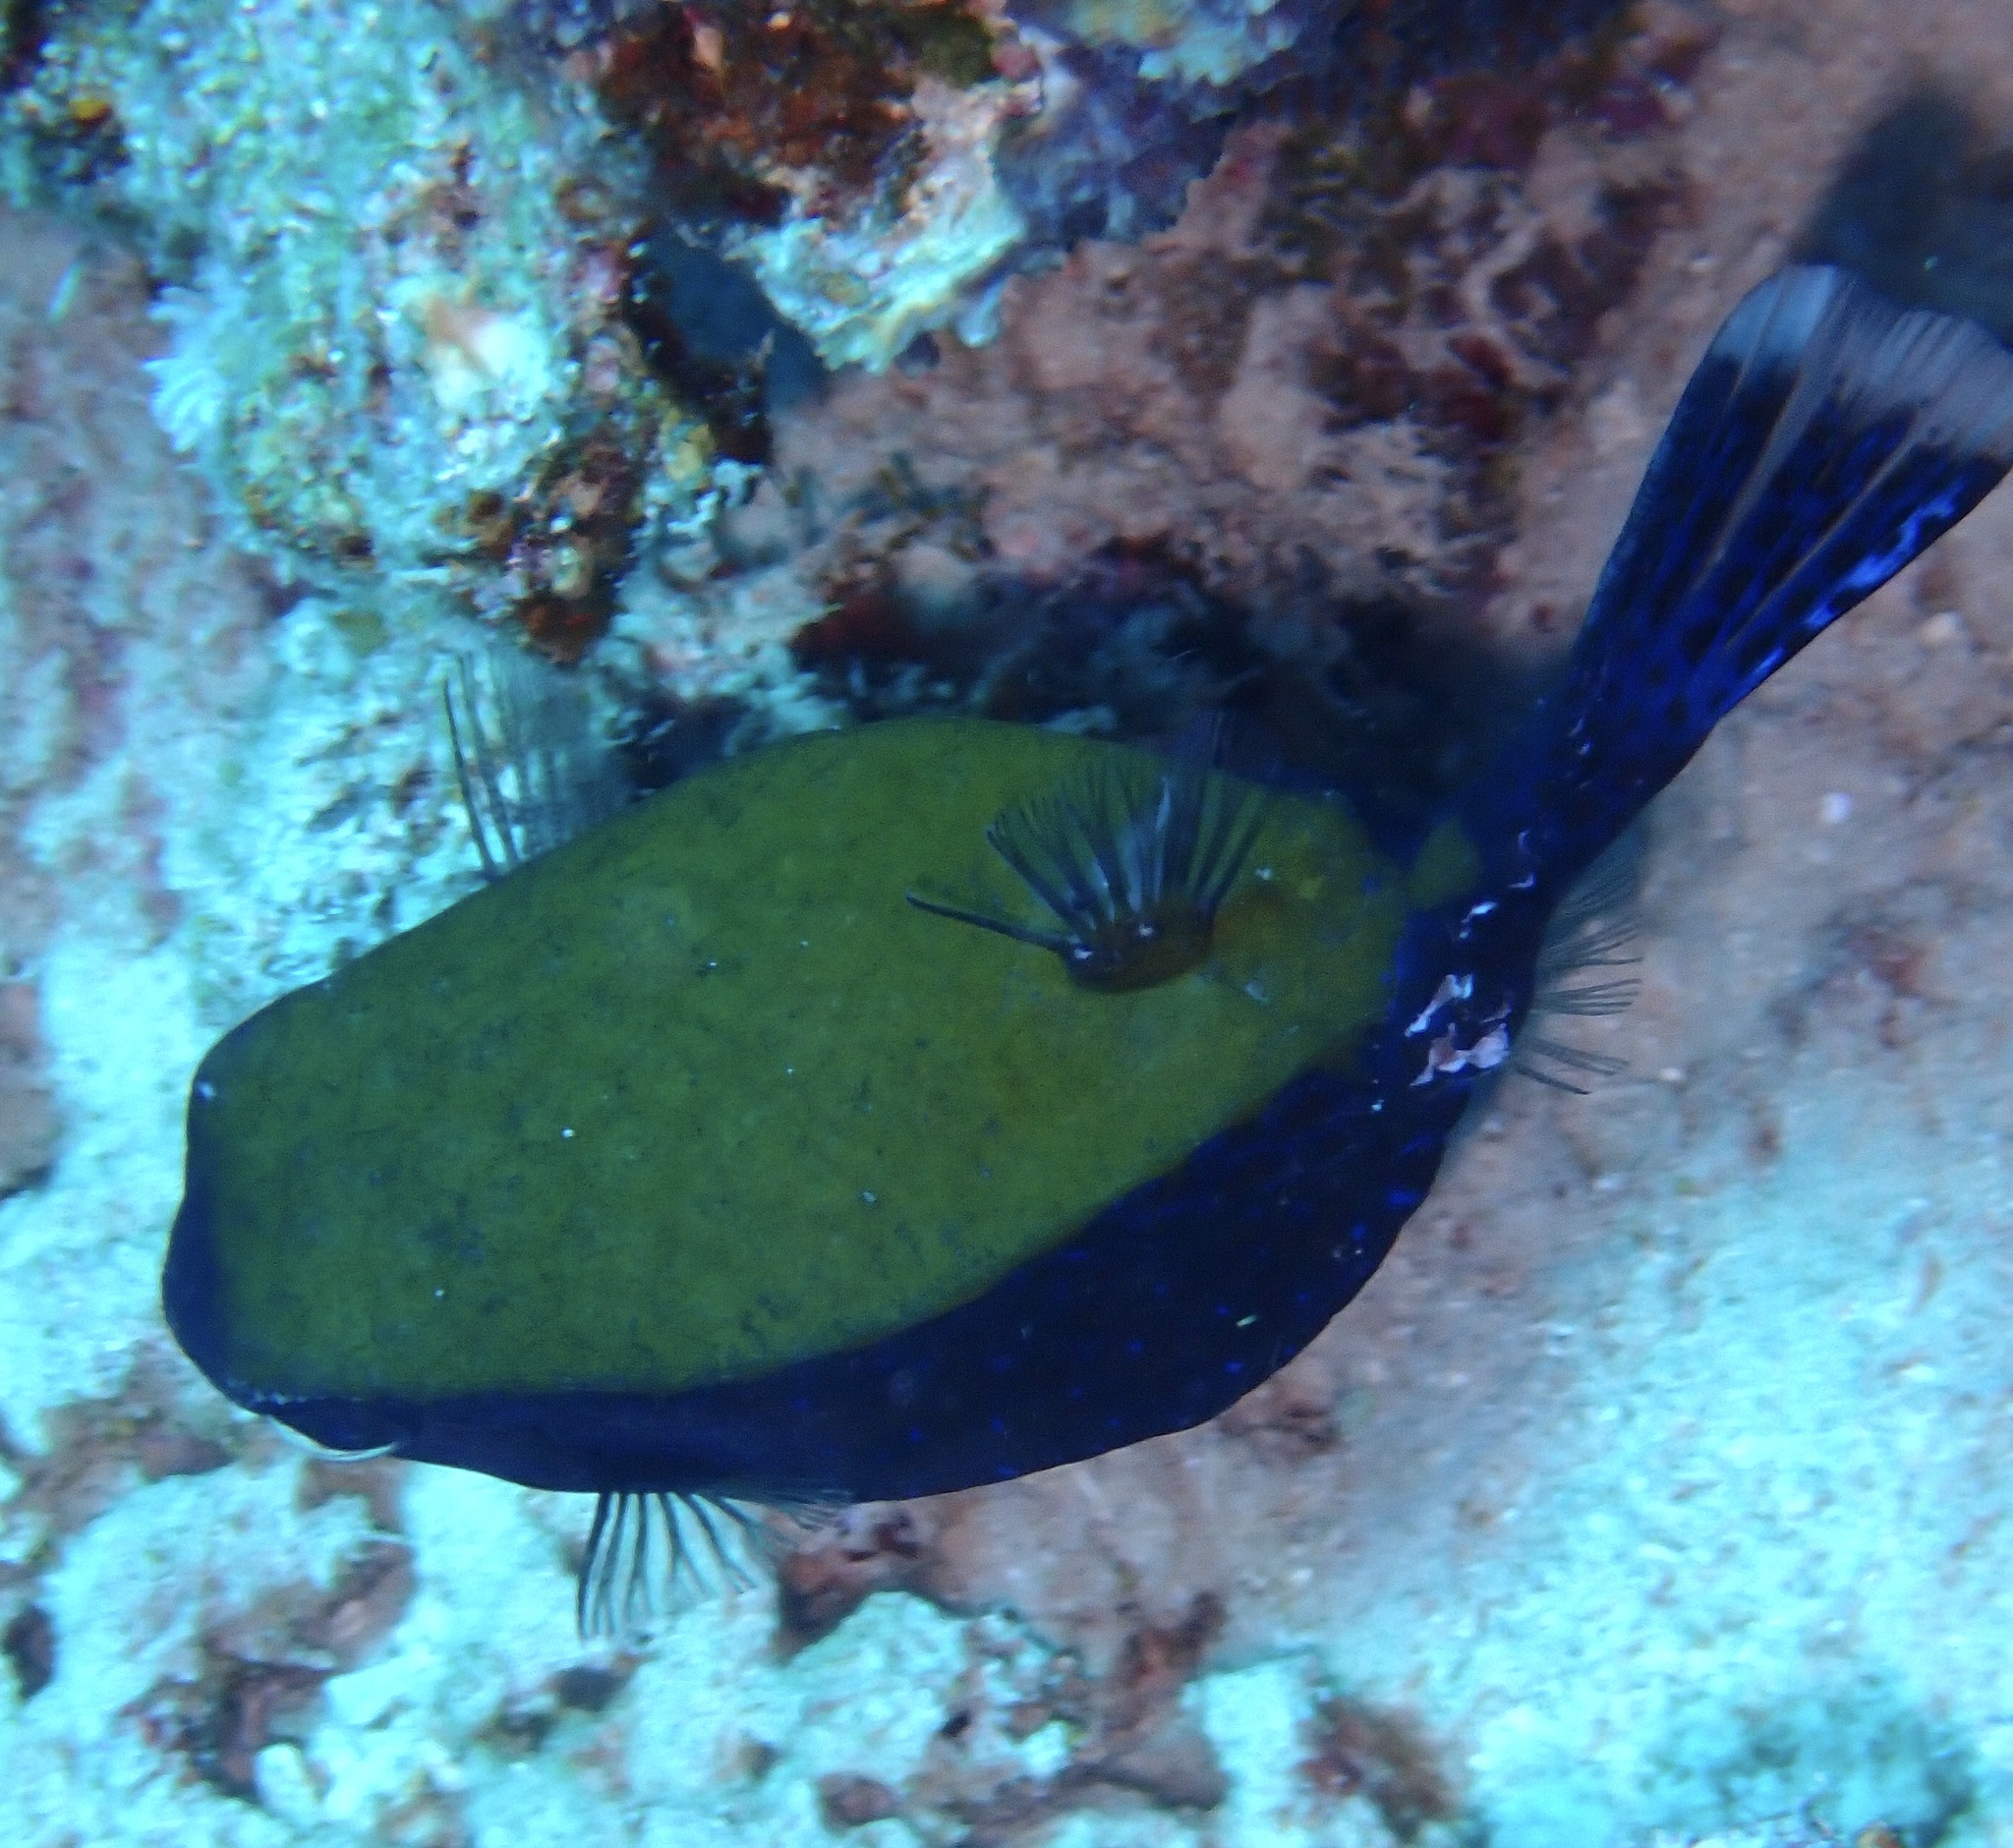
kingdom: Animalia
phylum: Chordata
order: Tetraodontiformes
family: Ostraciidae
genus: Ostracion
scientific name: Ostracion cyanurus
